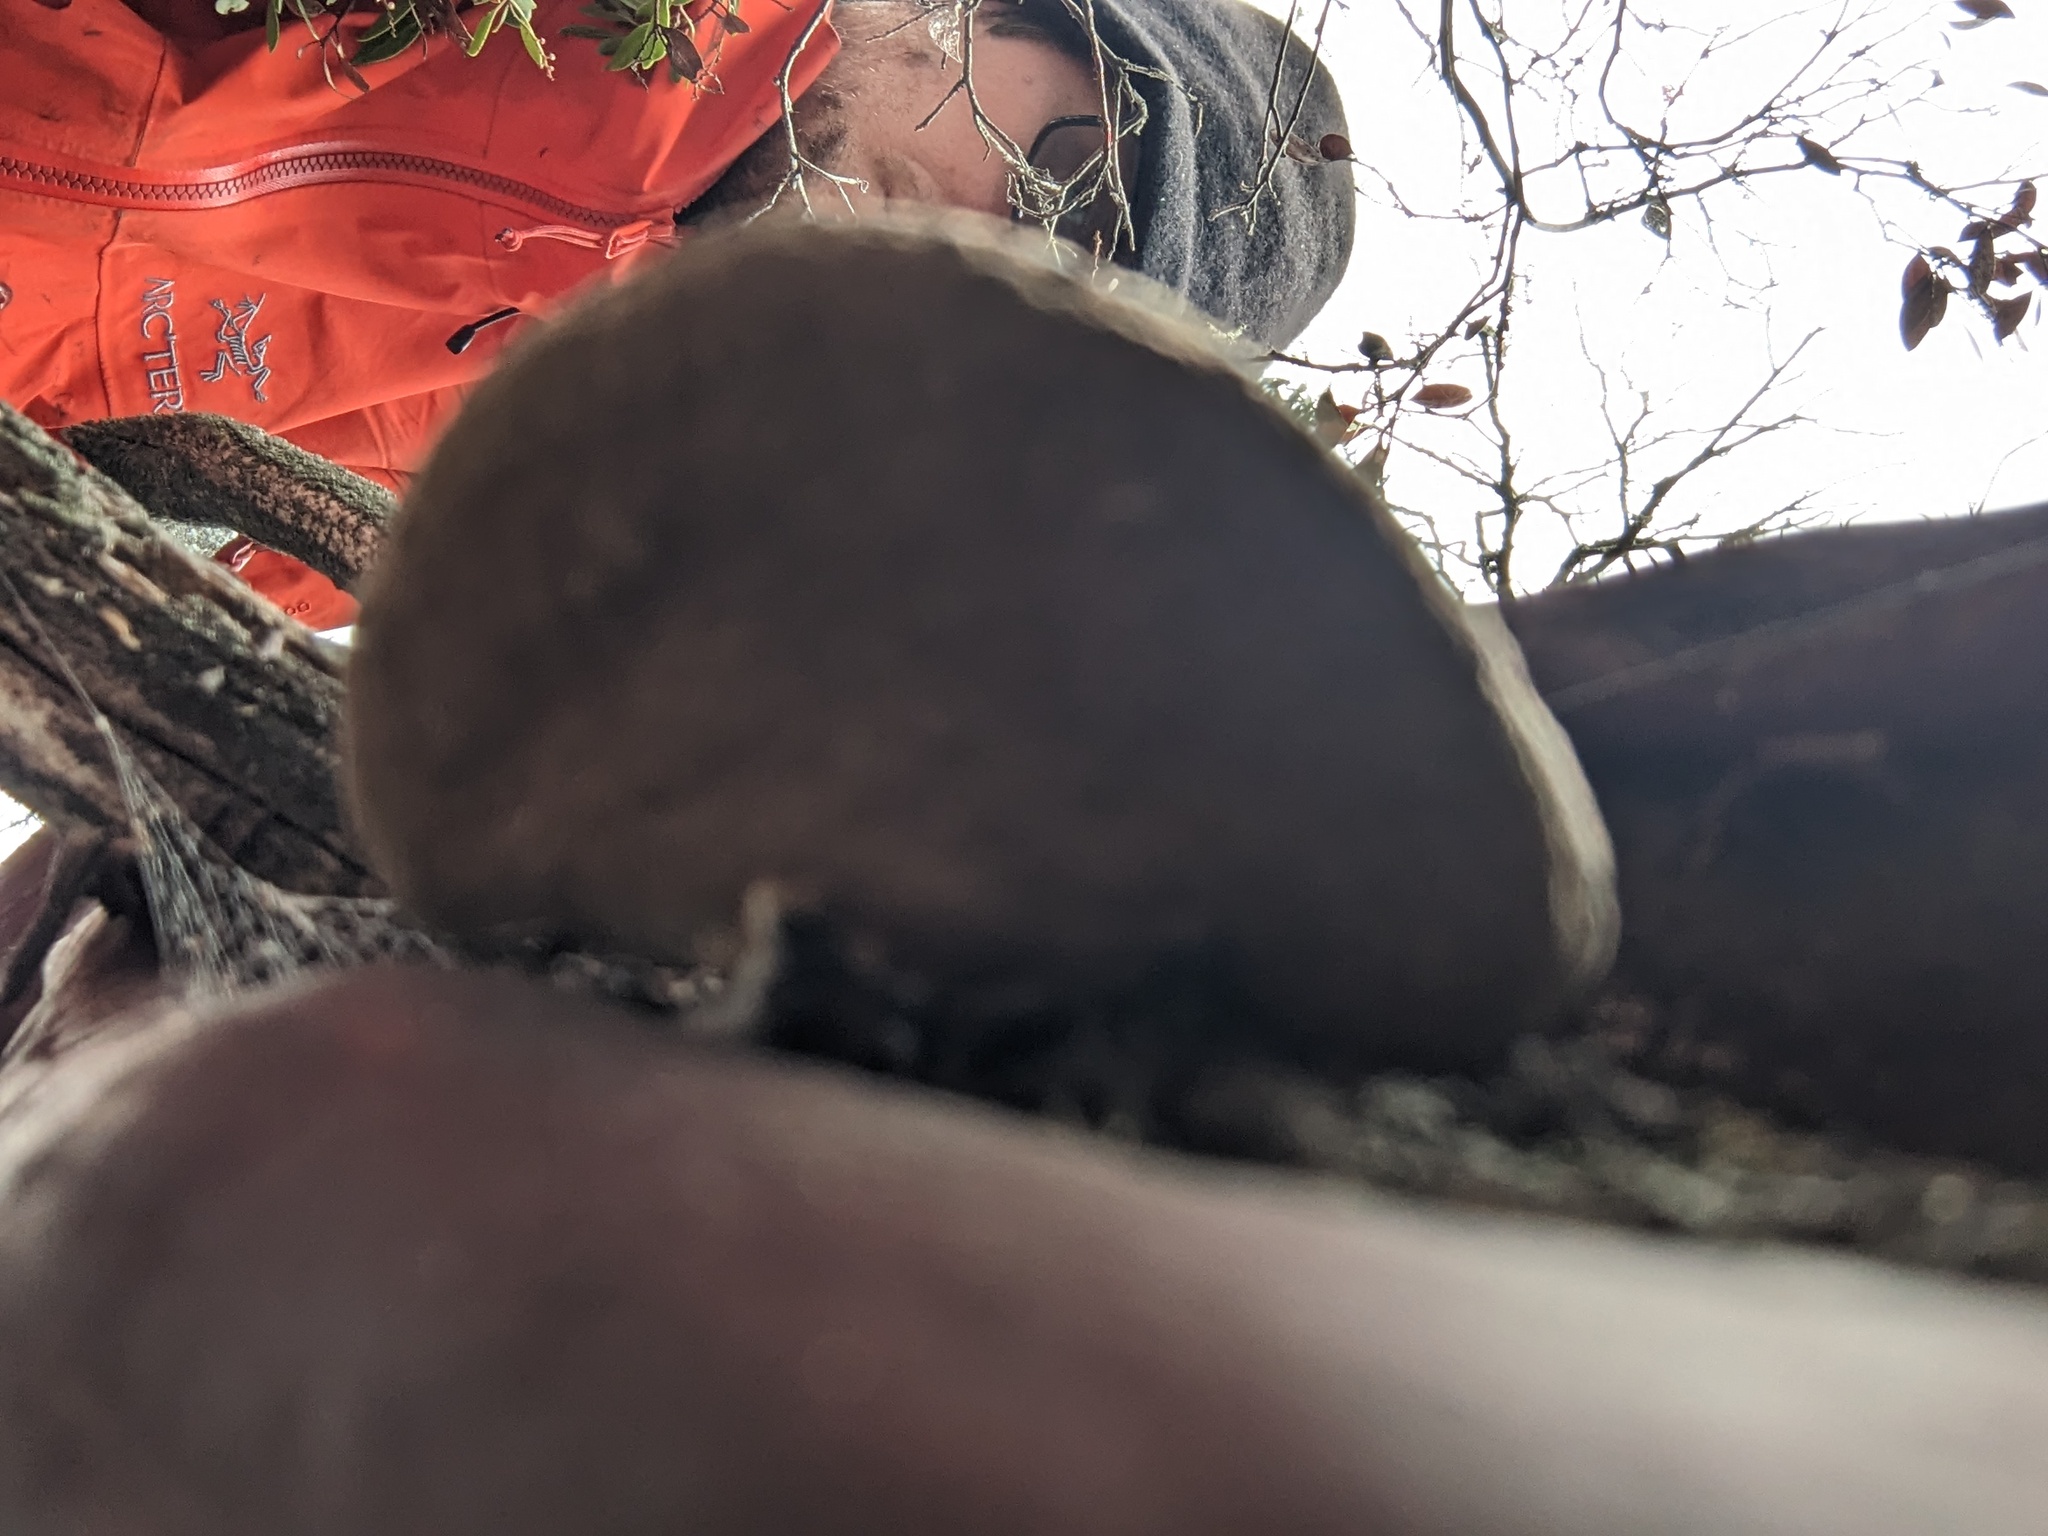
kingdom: Fungi
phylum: Basidiomycota
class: Agaricomycetes
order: Polyporales
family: Polyporaceae
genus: Fomes
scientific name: Fomes arctostaphyli
